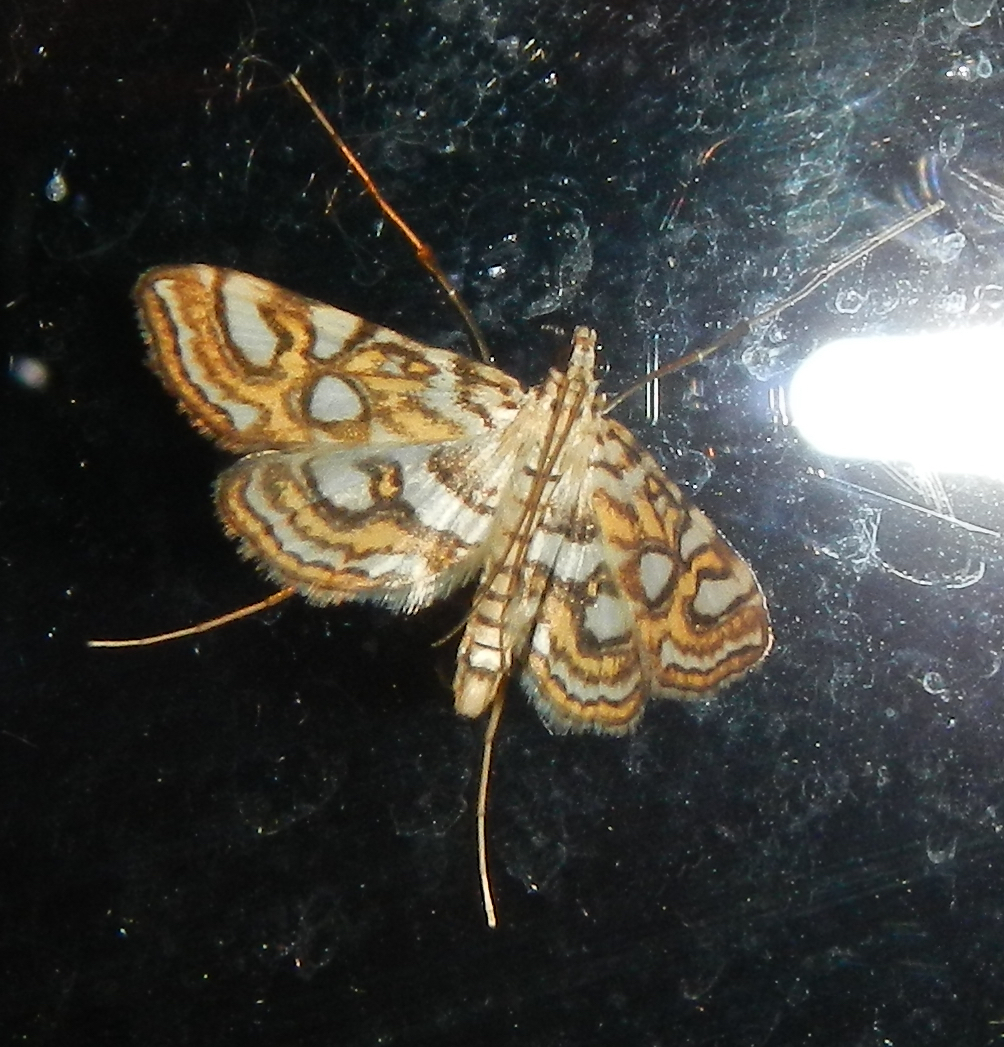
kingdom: Animalia
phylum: Arthropoda
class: Insecta
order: Lepidoptera
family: Crambidae
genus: Elophila
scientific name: Elophila ekthlipsis
